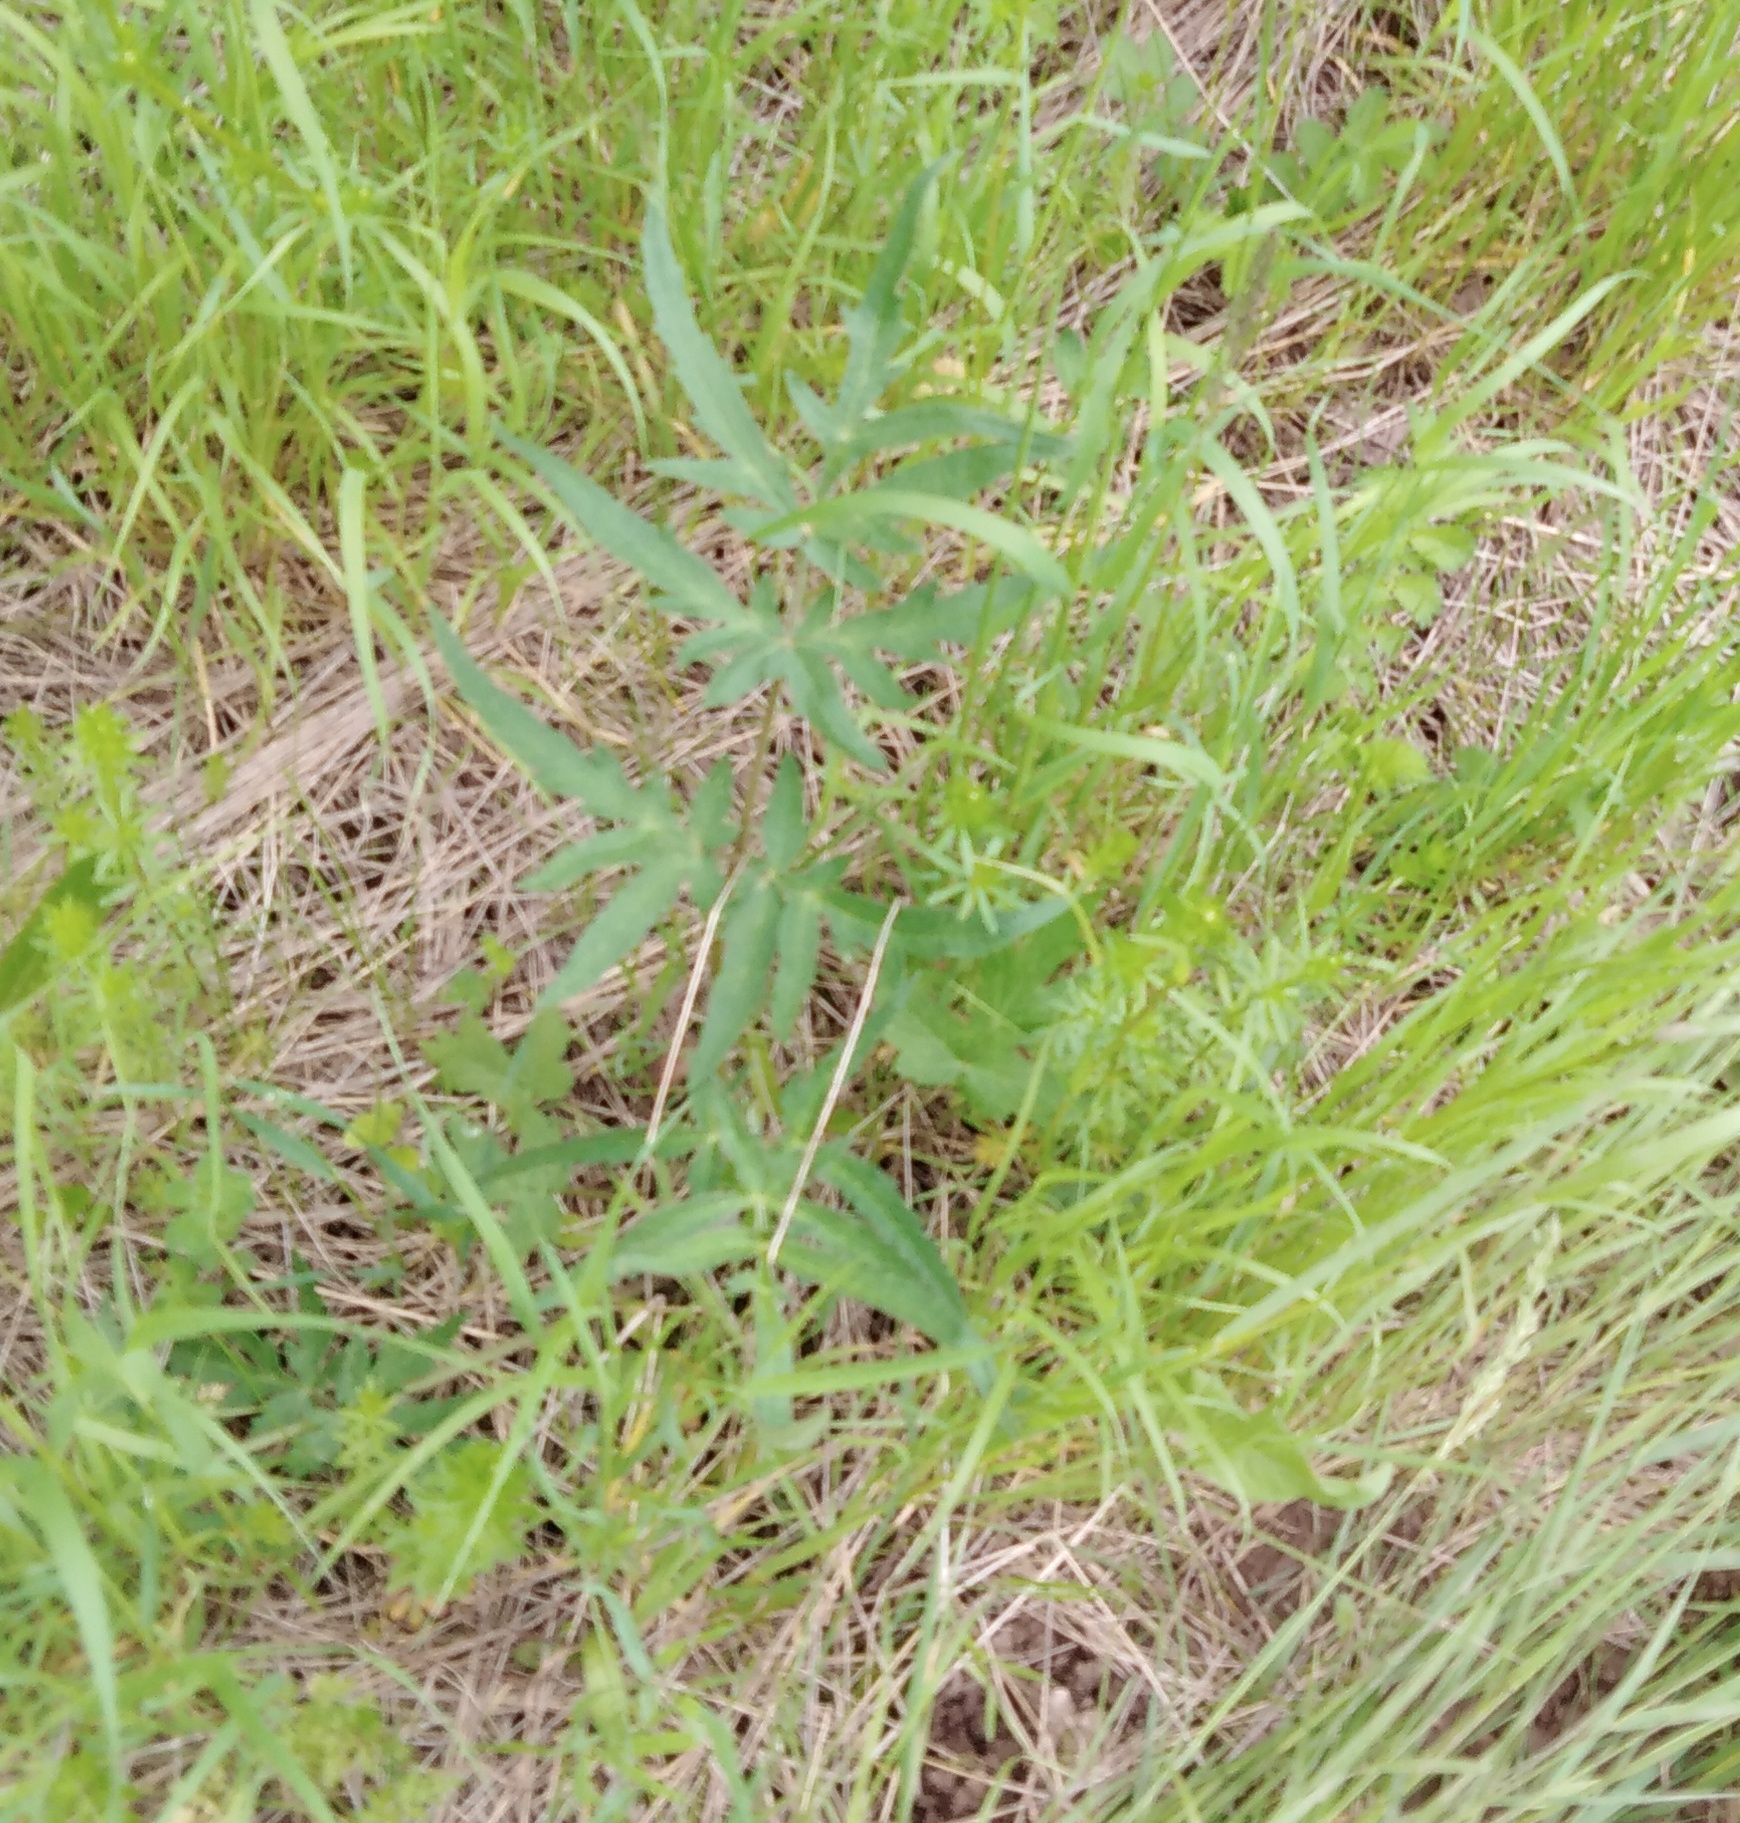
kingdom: Plantae
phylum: Tracheophyta
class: Magnoliopsida
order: Apiales
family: Apiaceae
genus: Heracleum
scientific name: Heracleum sphondylium
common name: Hogweed
